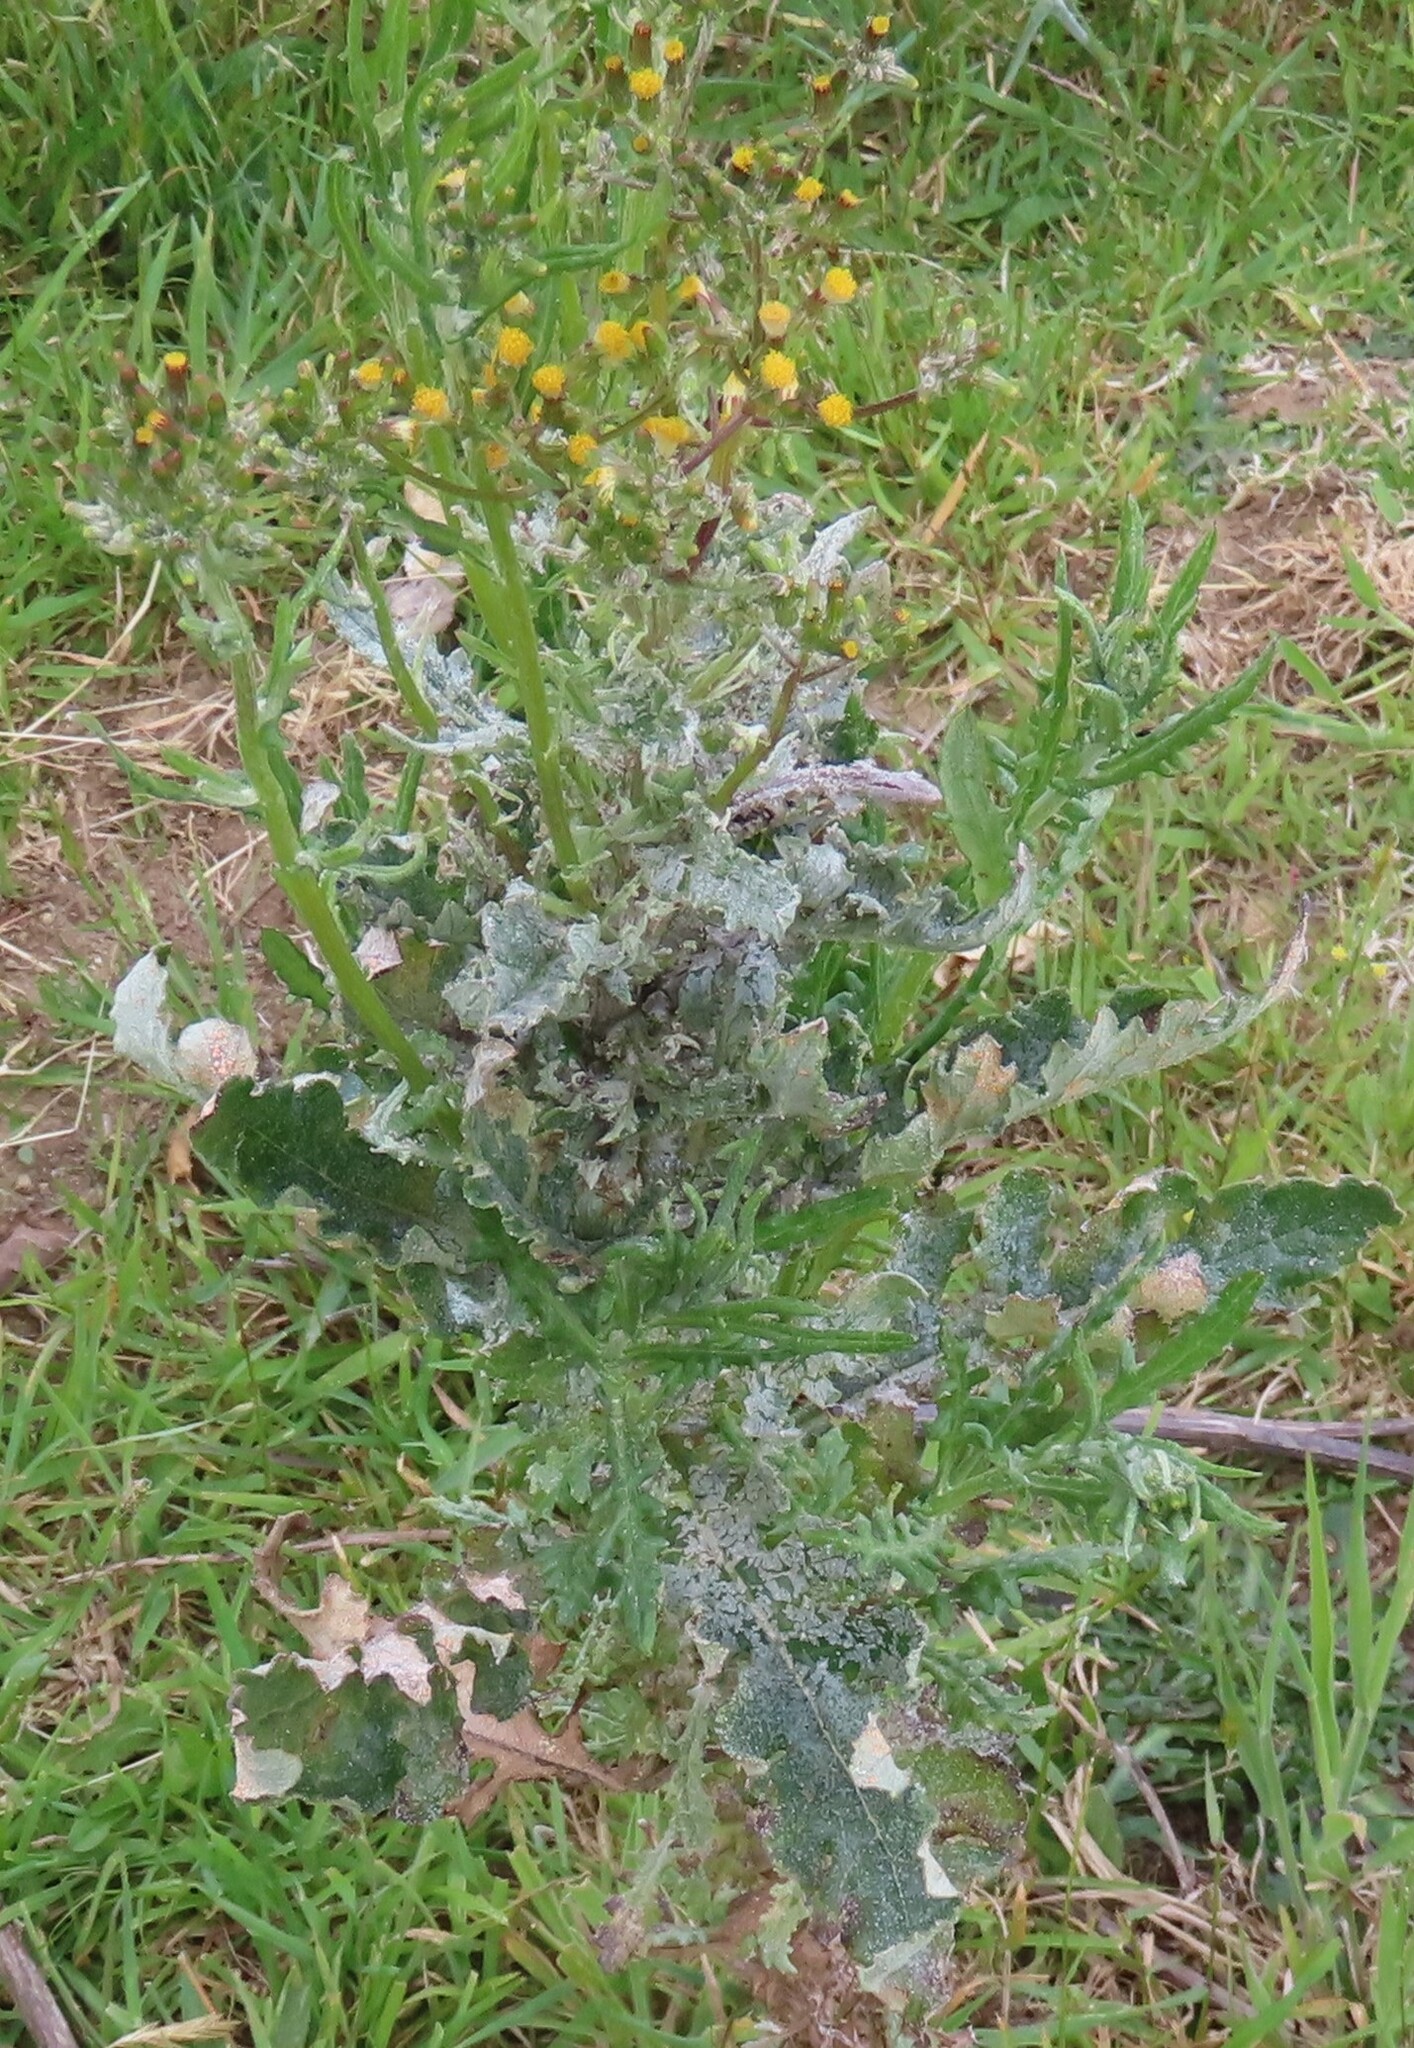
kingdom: Plantae
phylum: Tracheophyta
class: Magnoliopsida
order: Asterales
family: Asteraceae
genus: Senecio
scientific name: Senecio glomeratus
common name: Cutleaf burnweed
